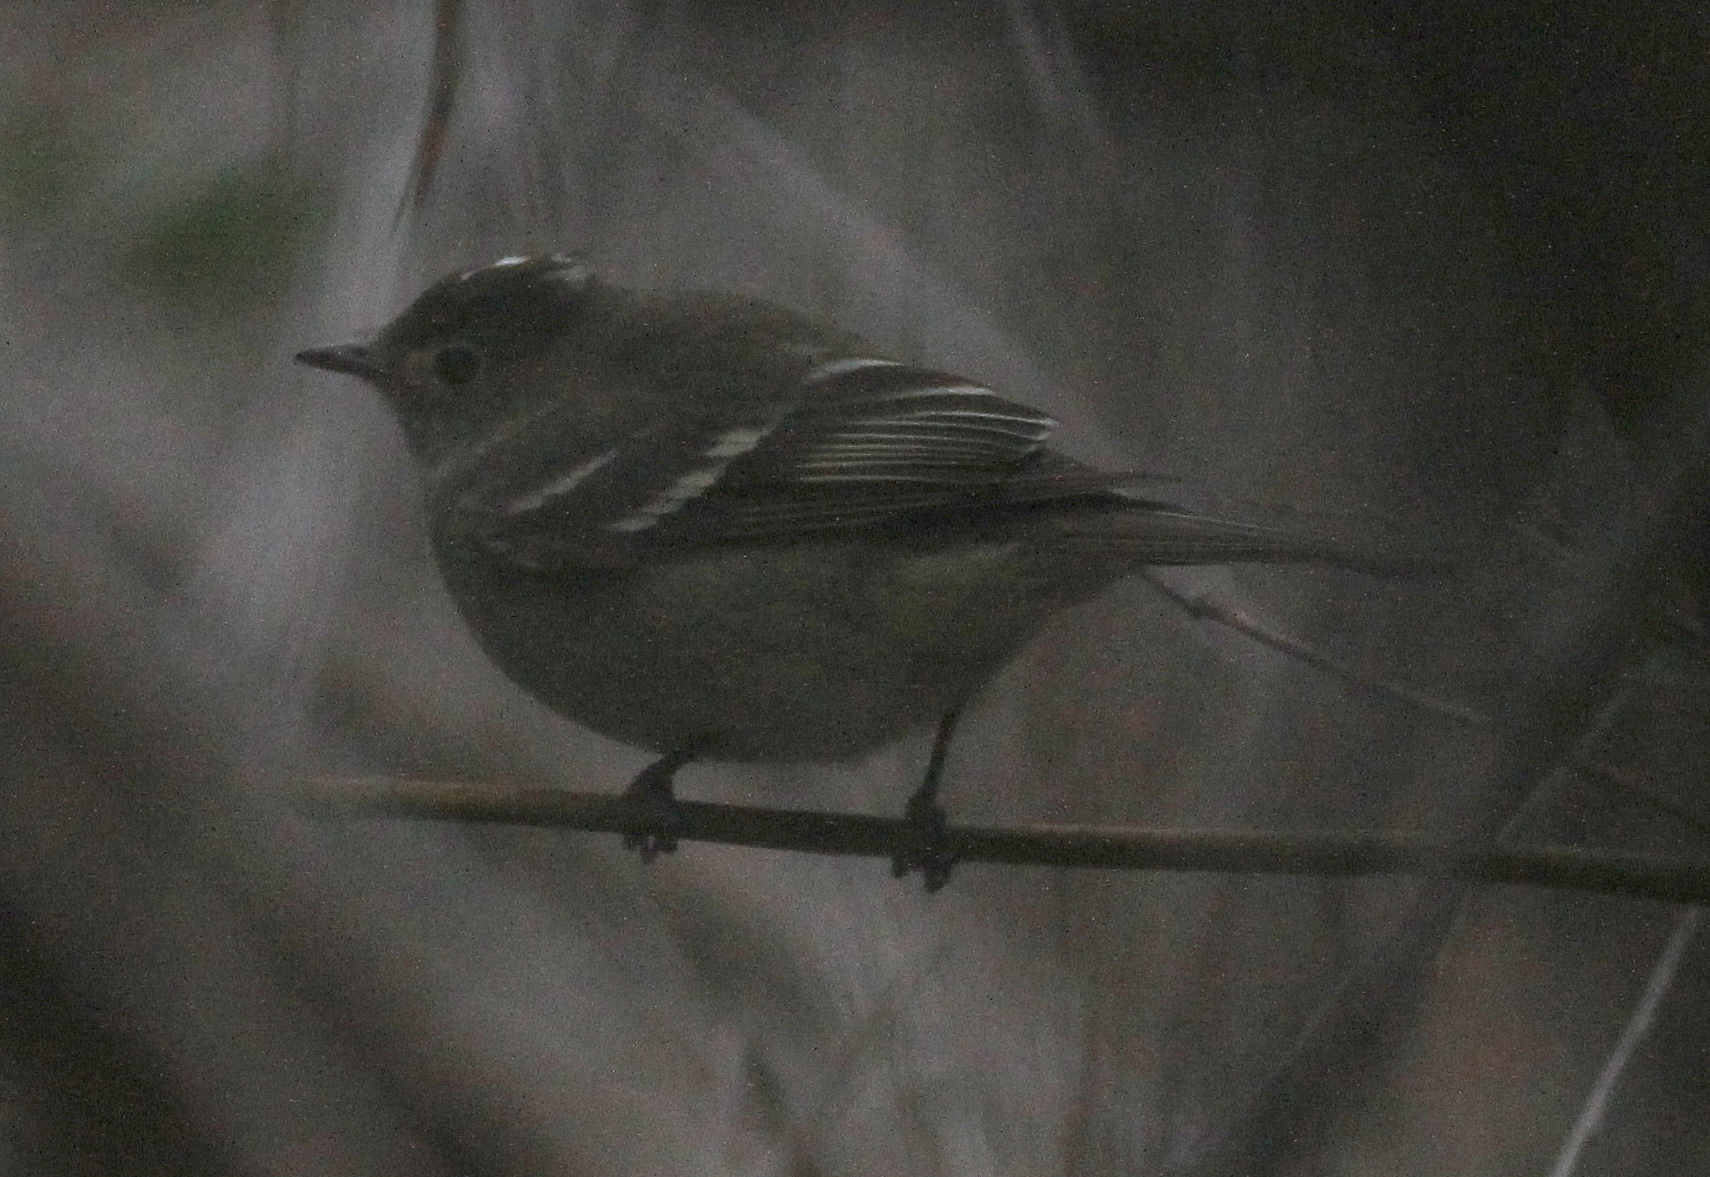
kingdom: Animalia
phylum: Chordata
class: Aves
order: Passeriformes
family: Tyrannidae
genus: Elaenia
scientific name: Elaenia albiceps
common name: White-crested elaenia
